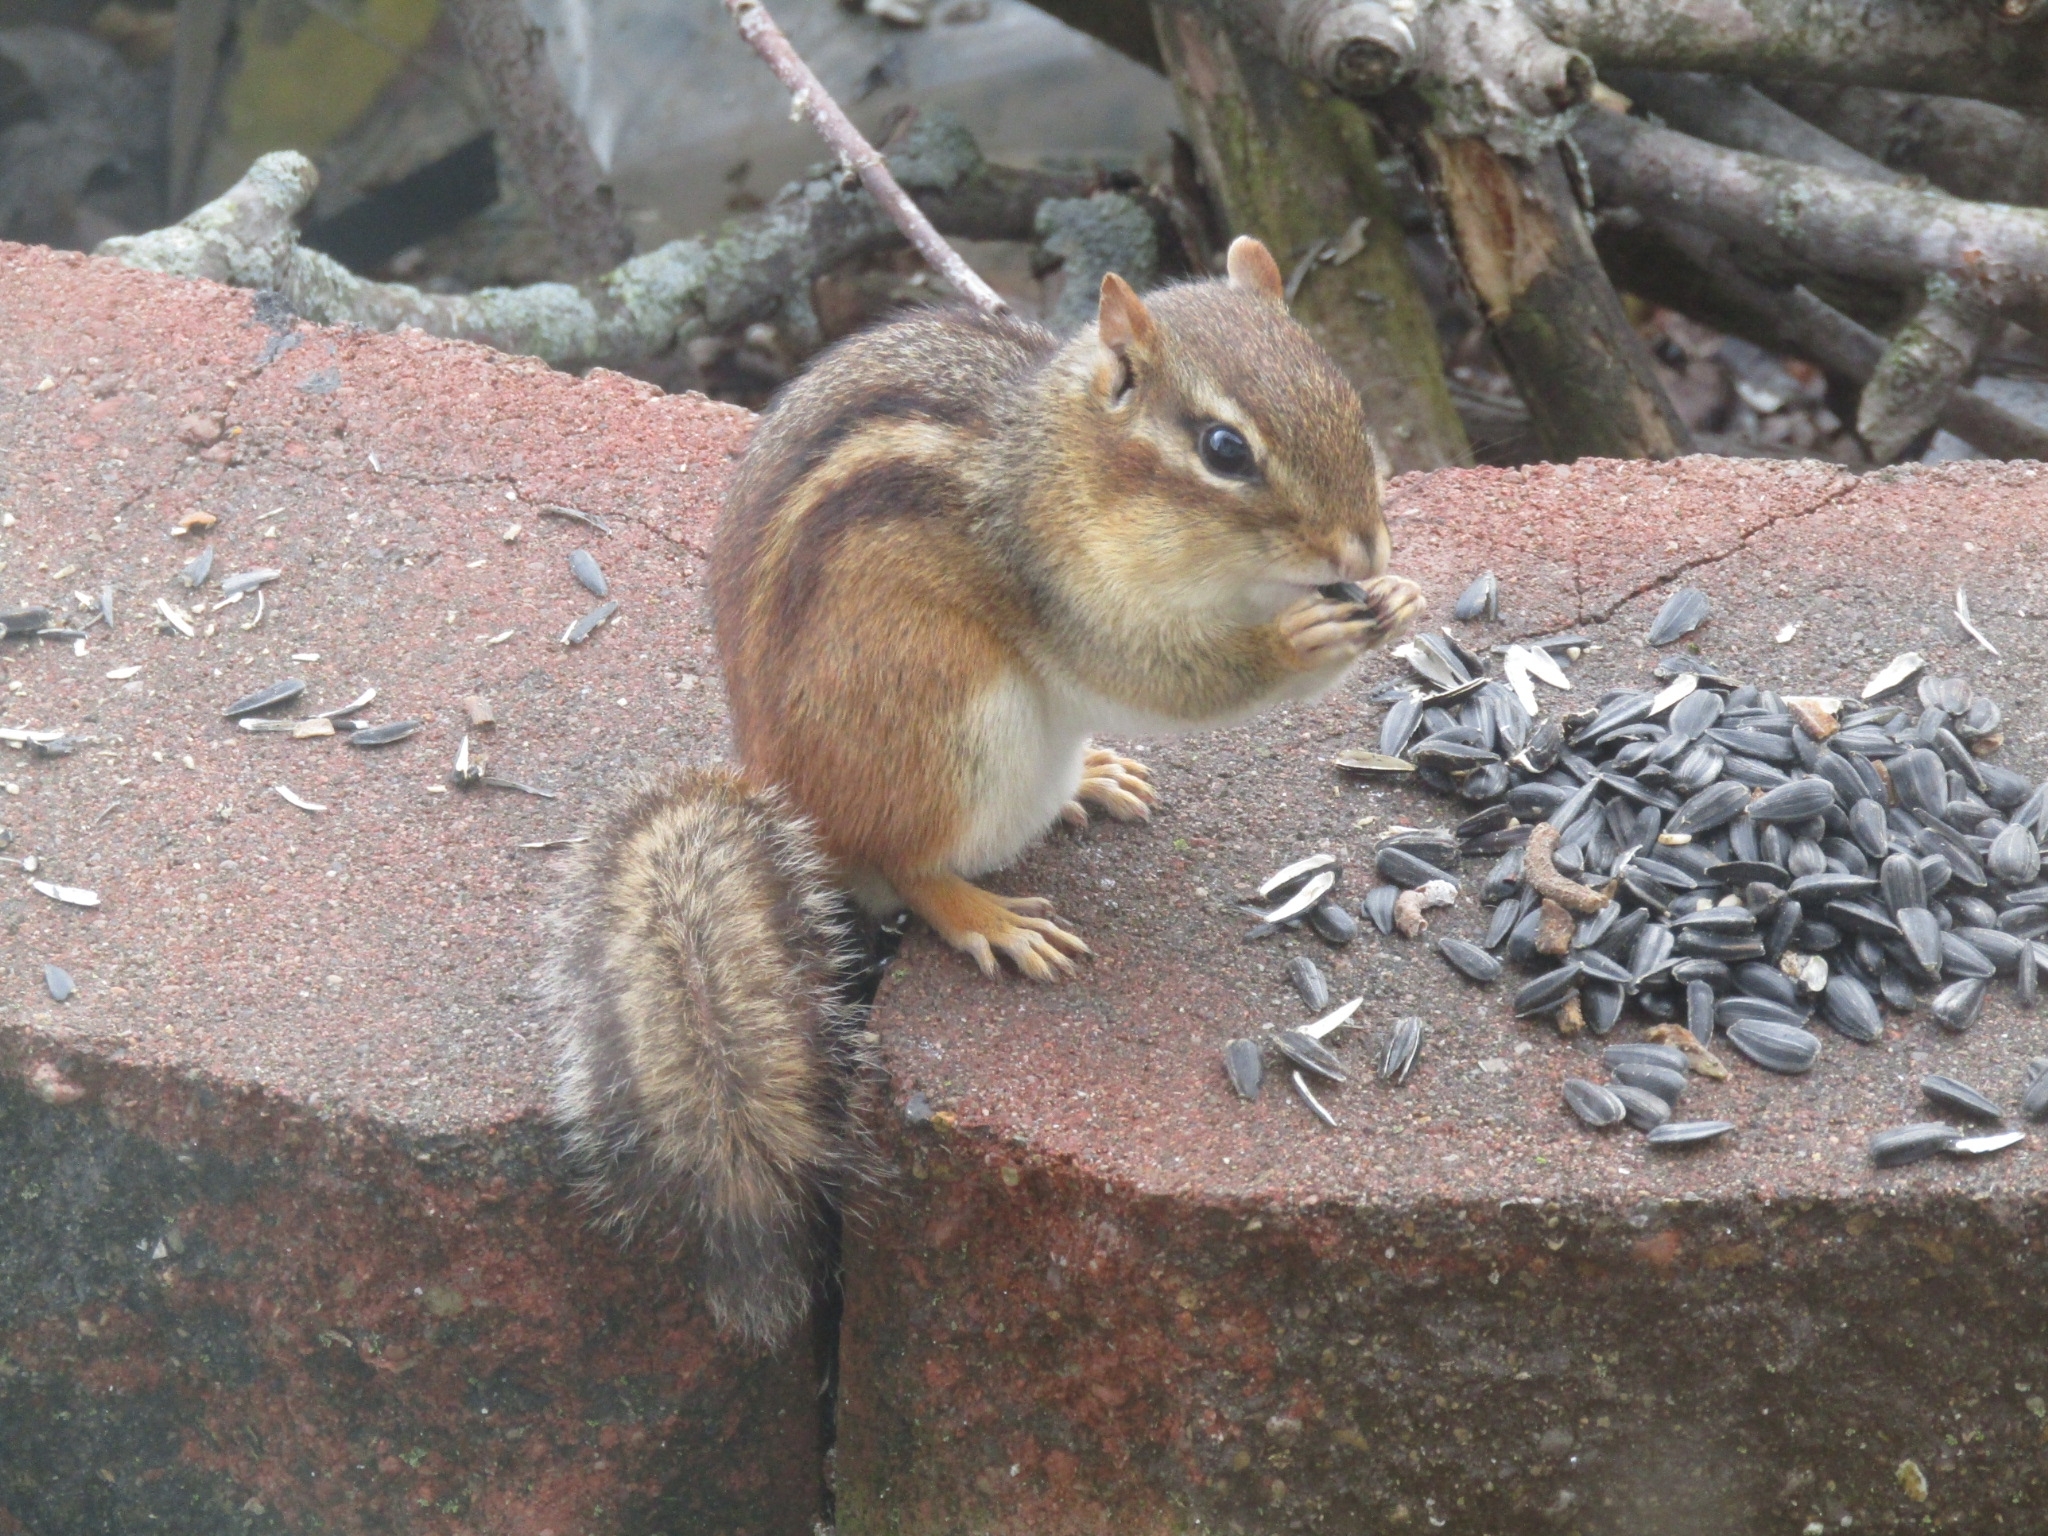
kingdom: Animalia
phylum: Chordata
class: Mammalia
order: Rodentia
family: Sciuridae
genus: Tamias
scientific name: Tamias striatus
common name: Eastern chipmunk
